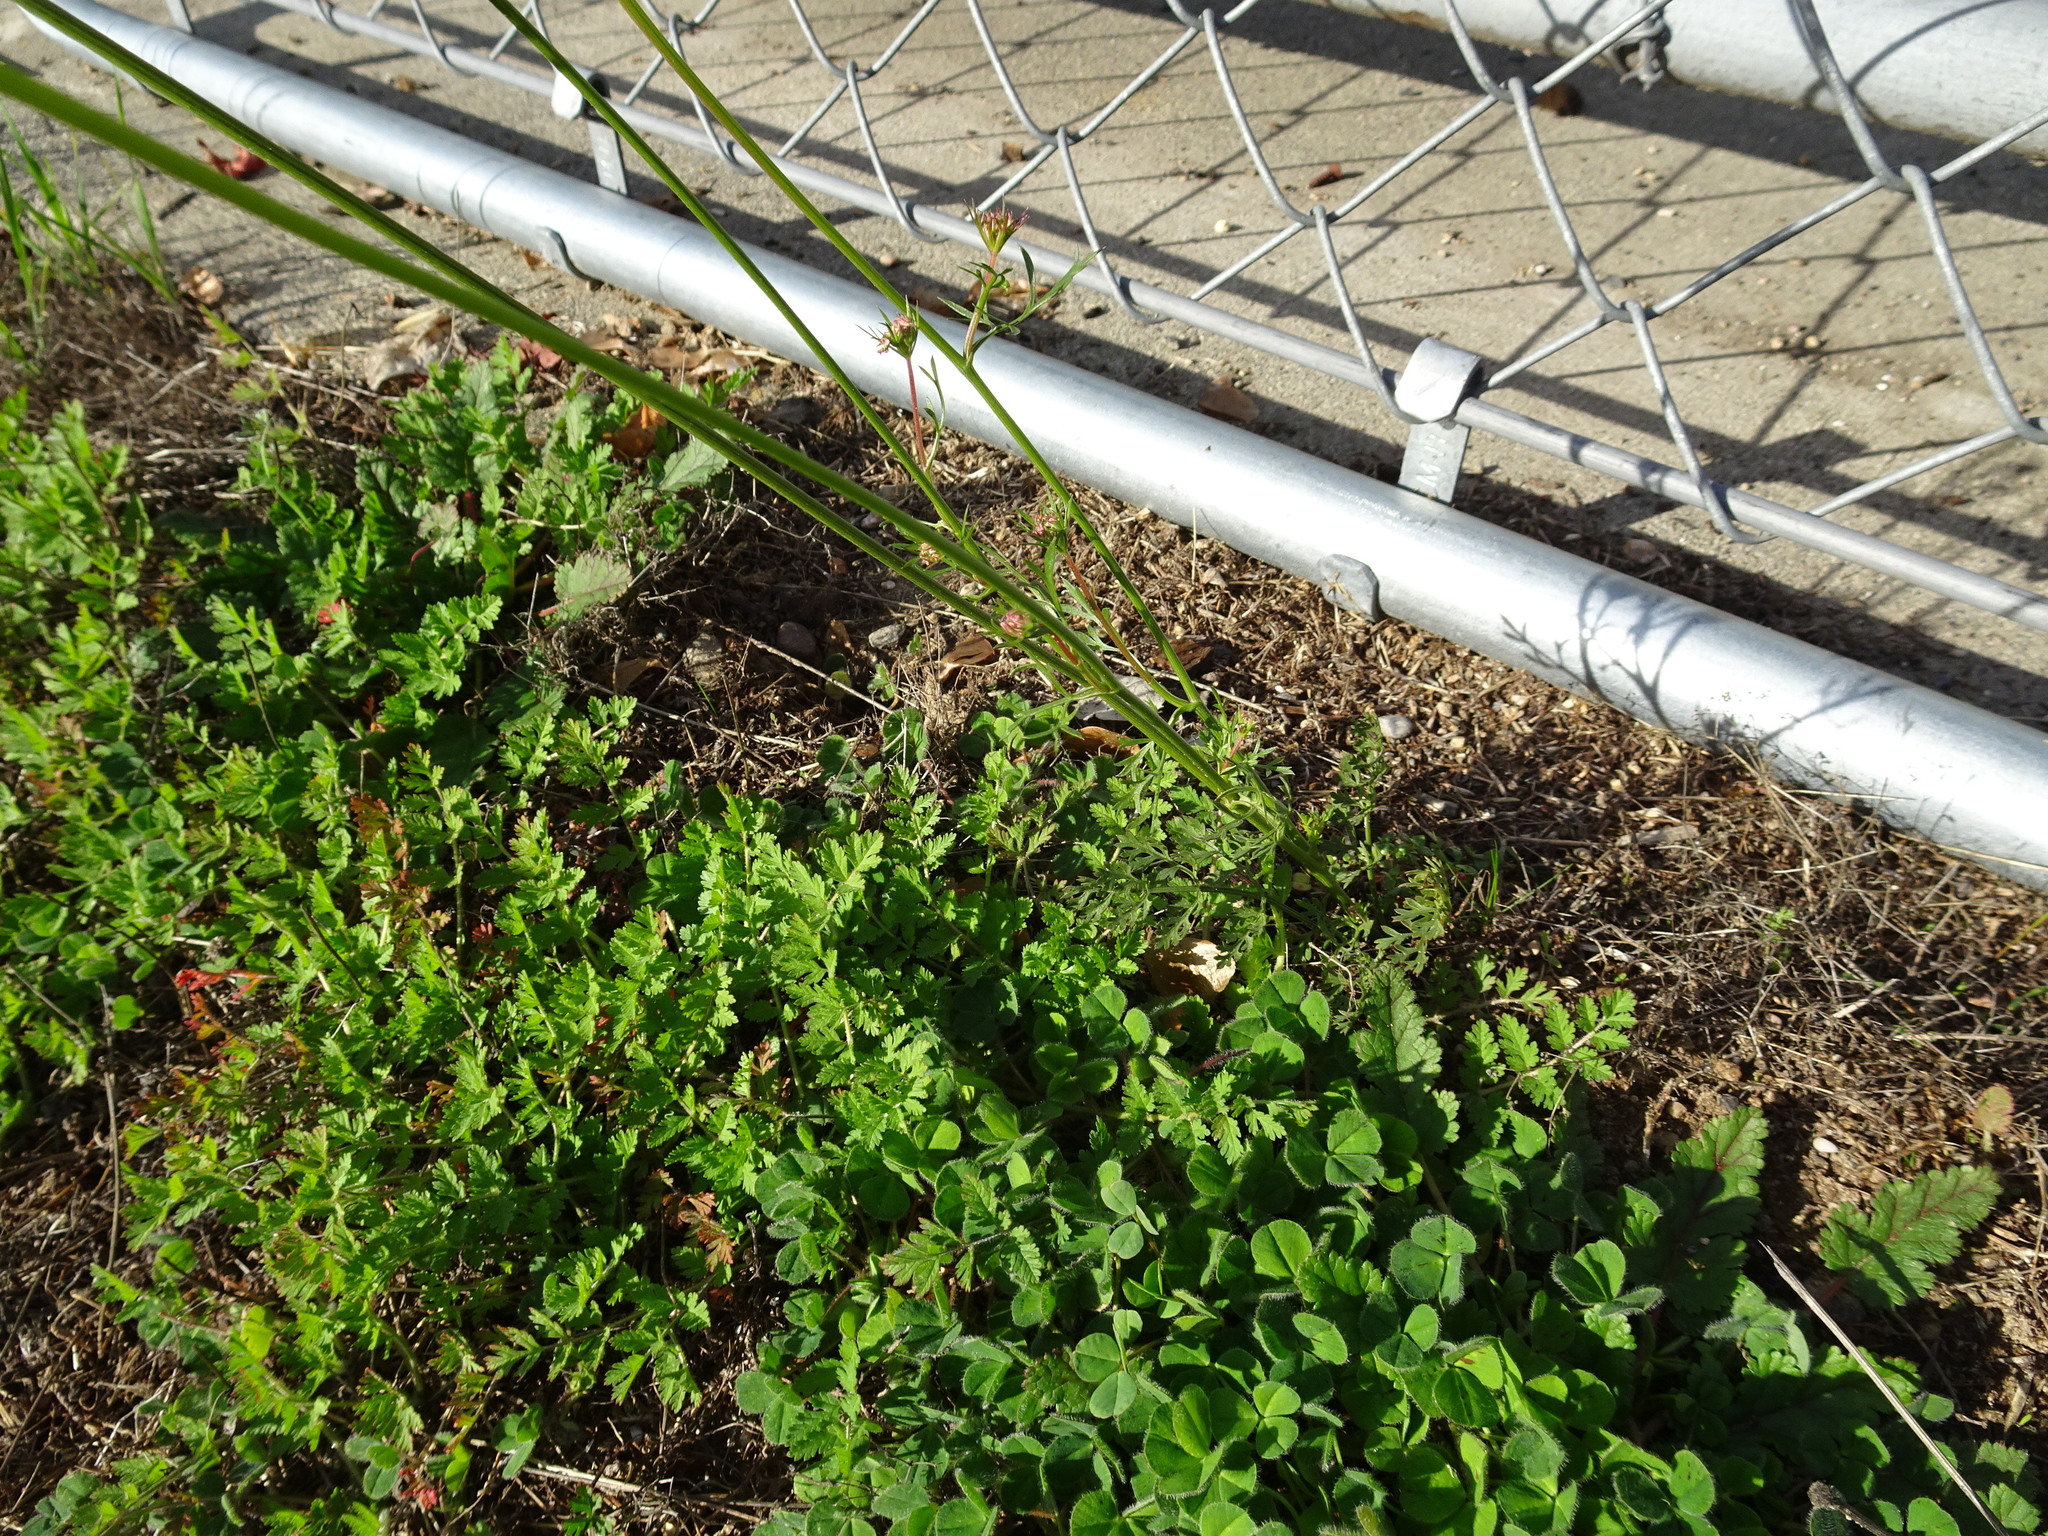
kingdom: Plantae
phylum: Tracheophyta
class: Magnoliopsida
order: Apiales
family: Apiaceae
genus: Daucus
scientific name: Daucus carota
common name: Wild carrot
